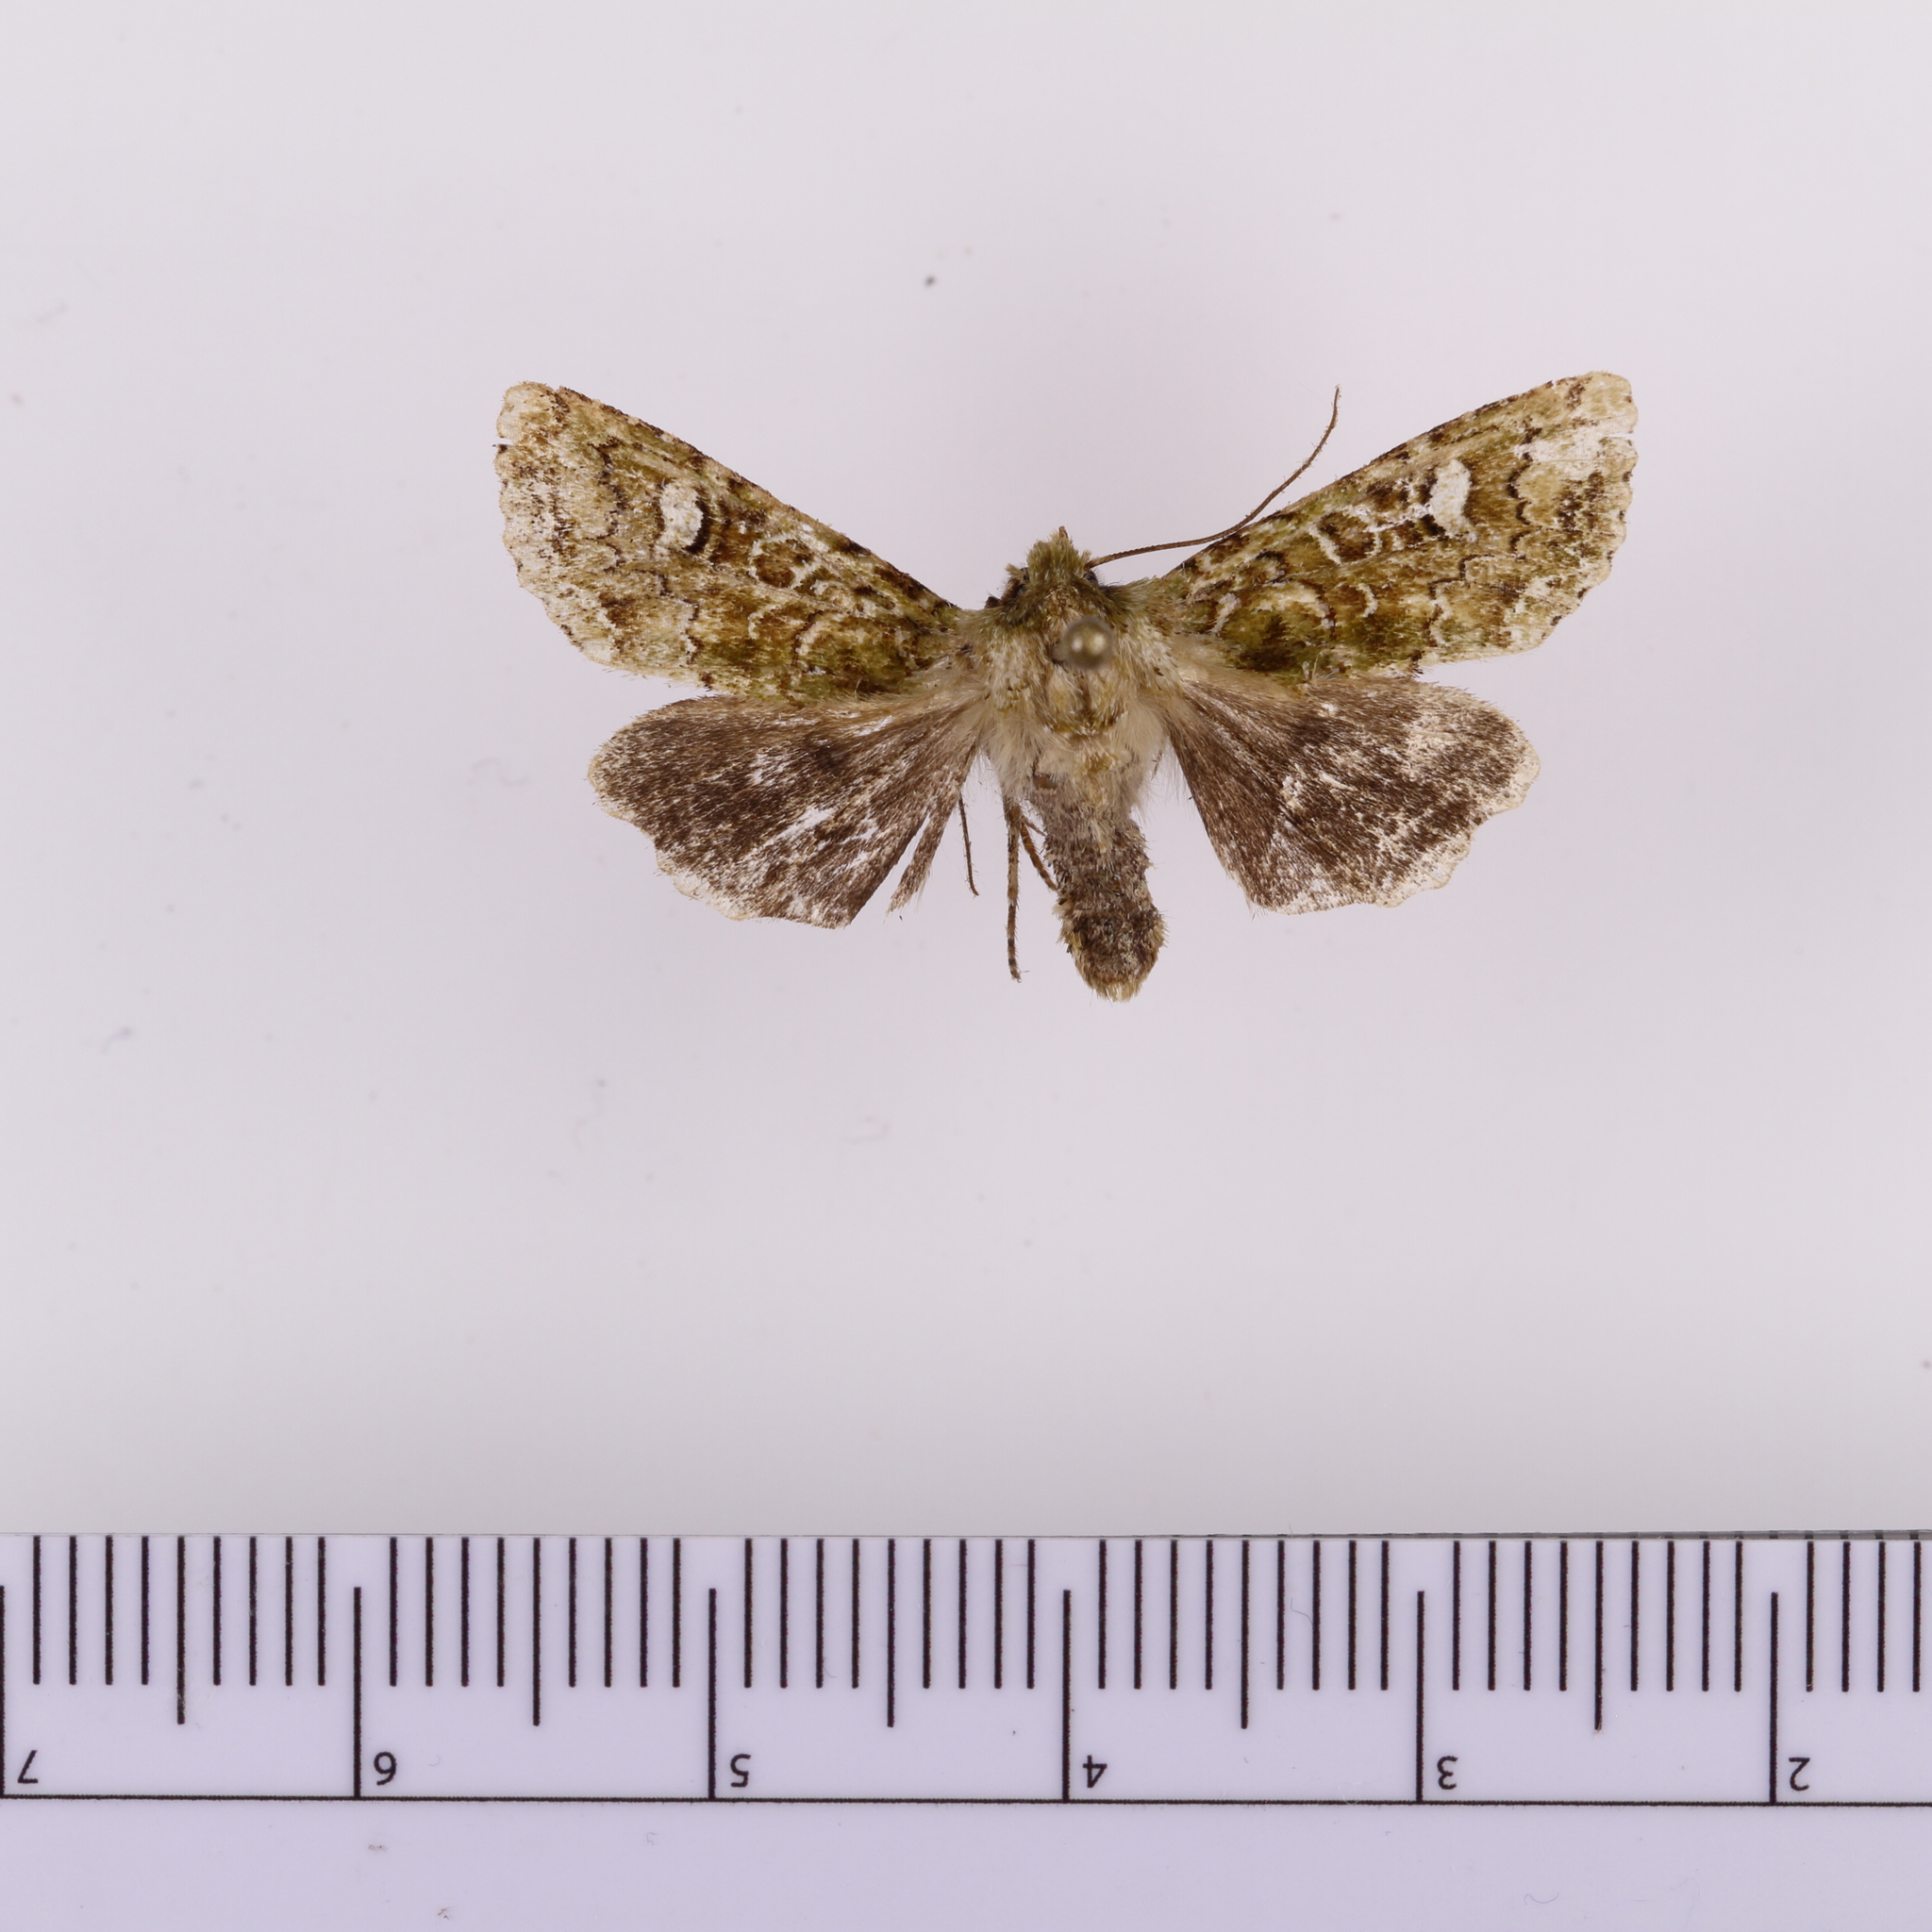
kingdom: Animalia
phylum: Arthropoda
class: Insecta
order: Lepidoptera
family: Noctuidae
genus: Ichneutica
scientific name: Ichneutica
